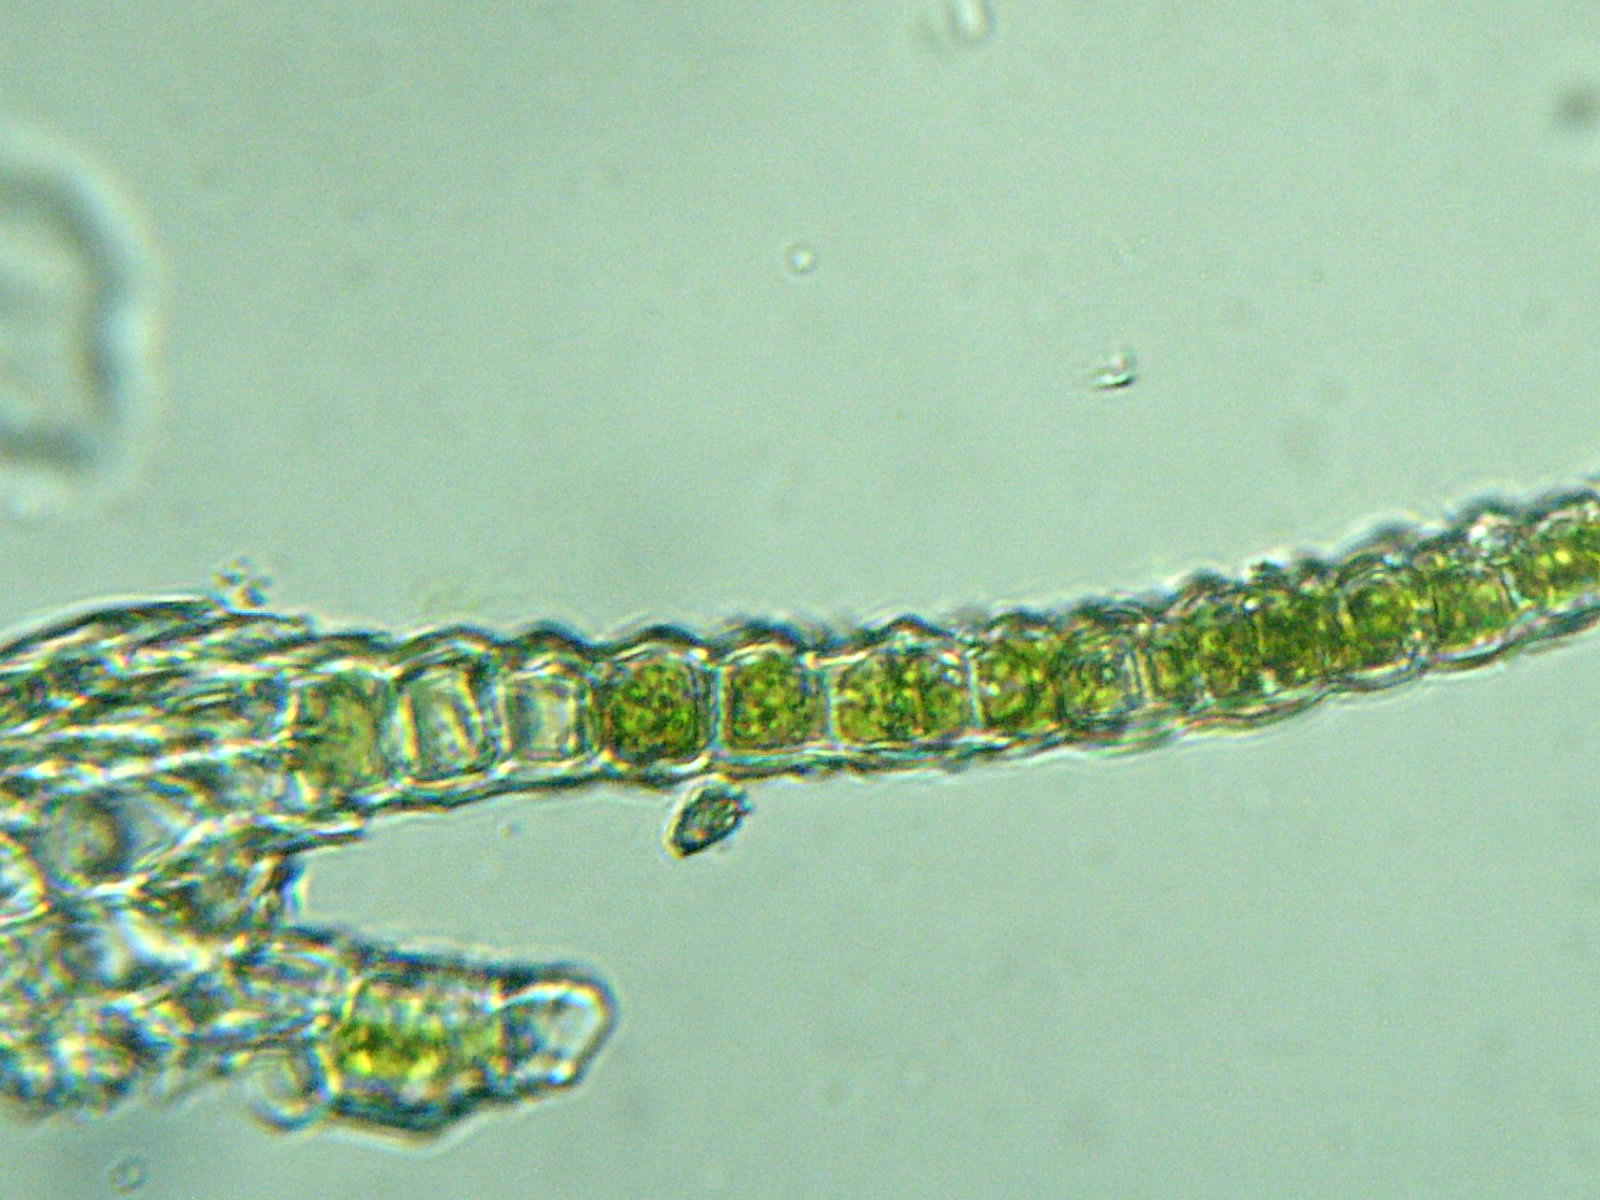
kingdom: Plantae
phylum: Bryophyta
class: Bryopsida
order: Dicranales
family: Fissidentaceae
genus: Fissidens
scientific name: Fissidens taxifolius
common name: Yew-leaved pocket moss
